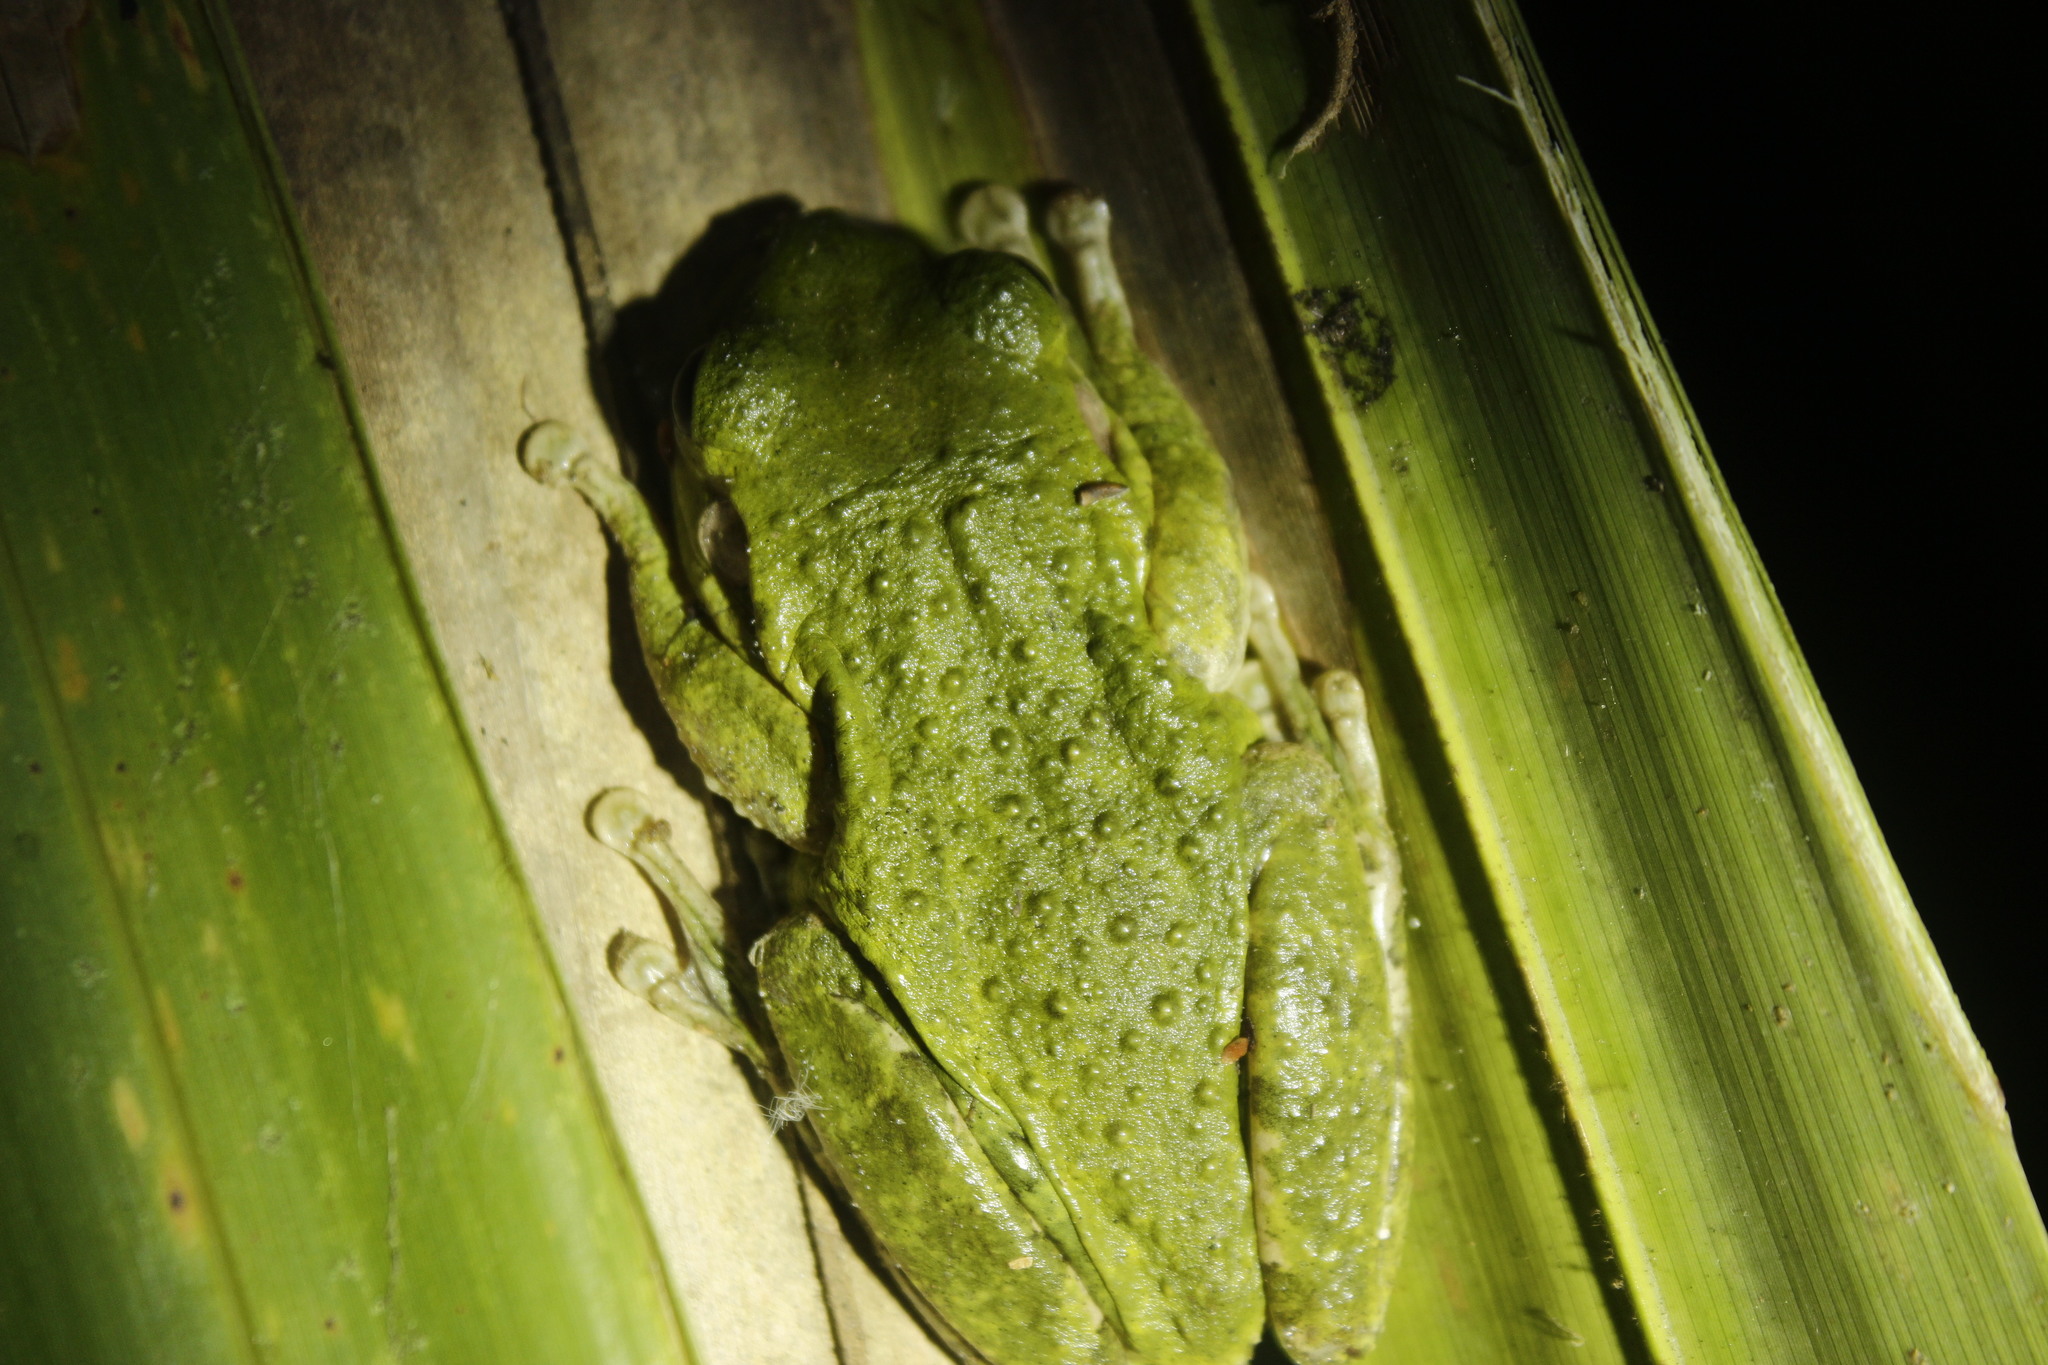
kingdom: Animalia
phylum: Chordata
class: Amphibia
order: Anura
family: Hylidae
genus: Osteopilus
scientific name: Osteopilus septentrionalis
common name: Cuban treefrog
